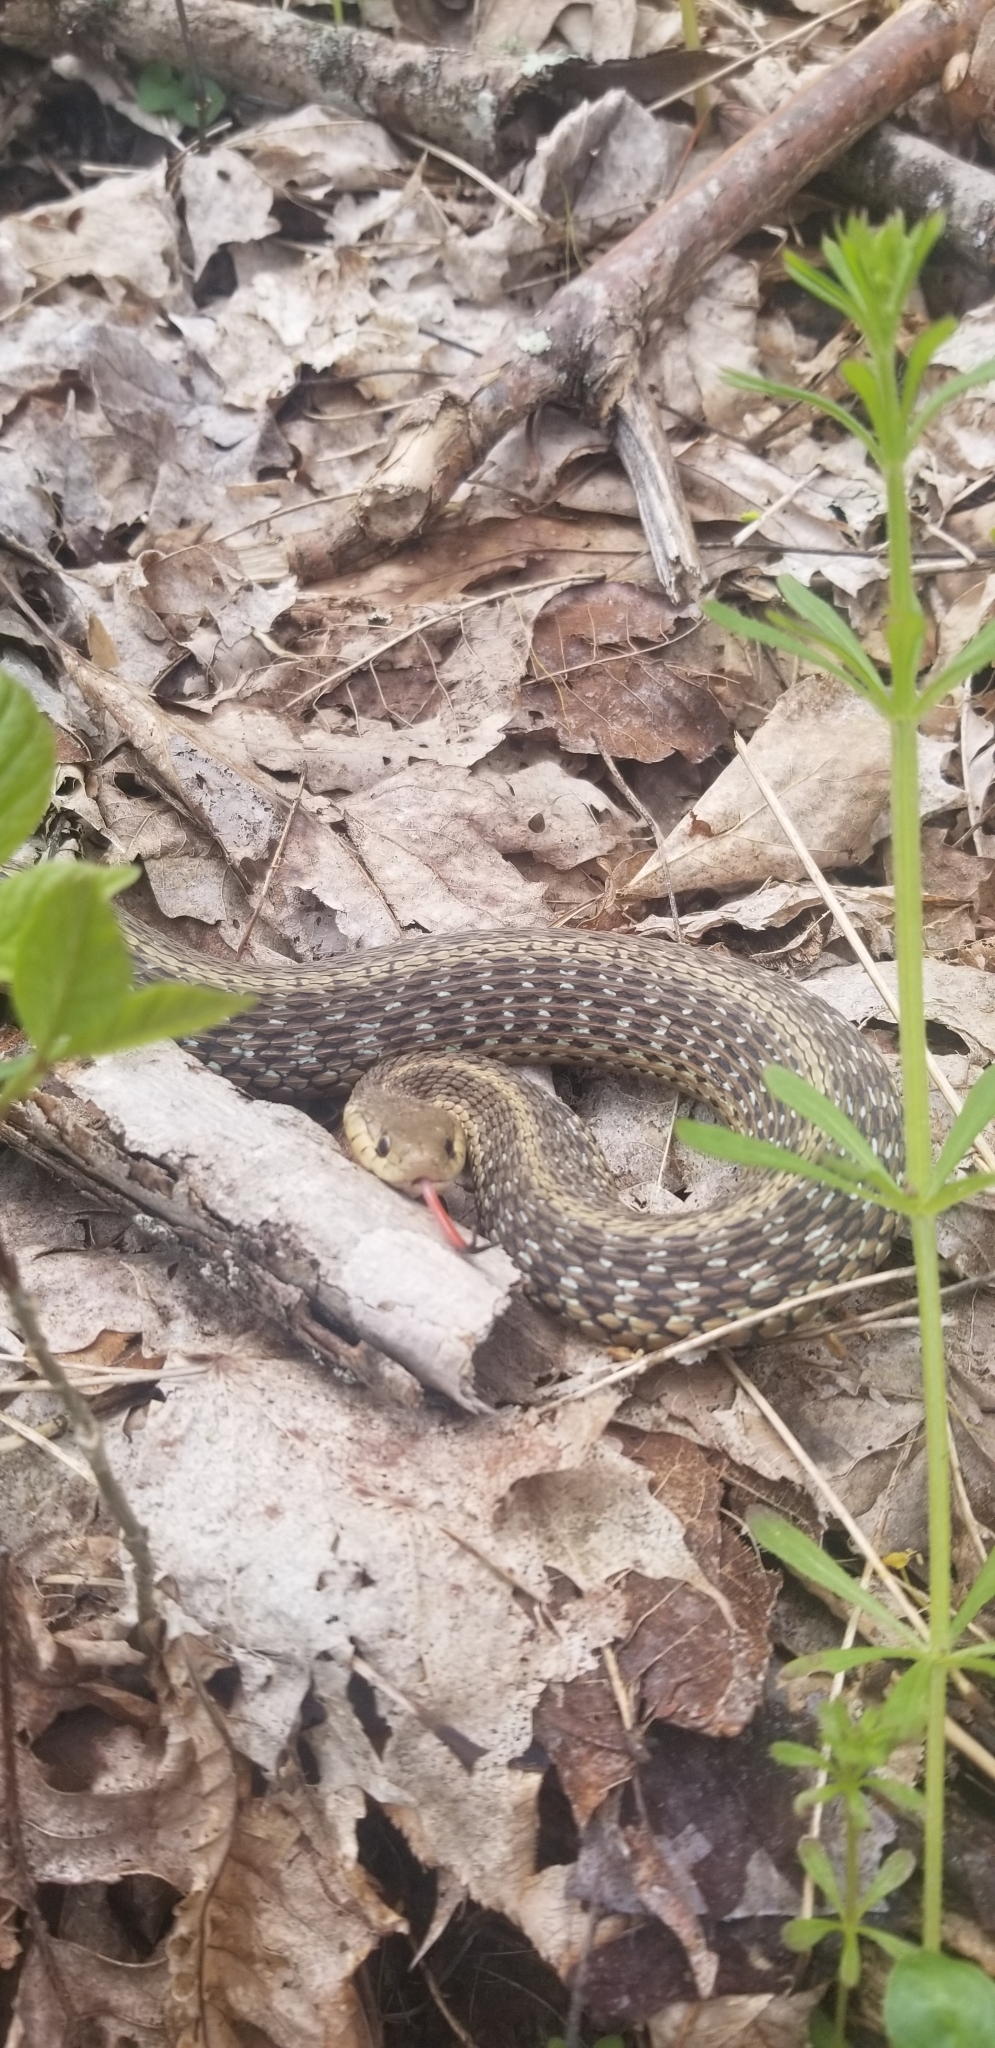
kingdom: Animalia
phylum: Chordata
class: Squamata
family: Colubridae
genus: Thamnophis
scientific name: Thamnophis sirtalis
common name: Common garter snake
